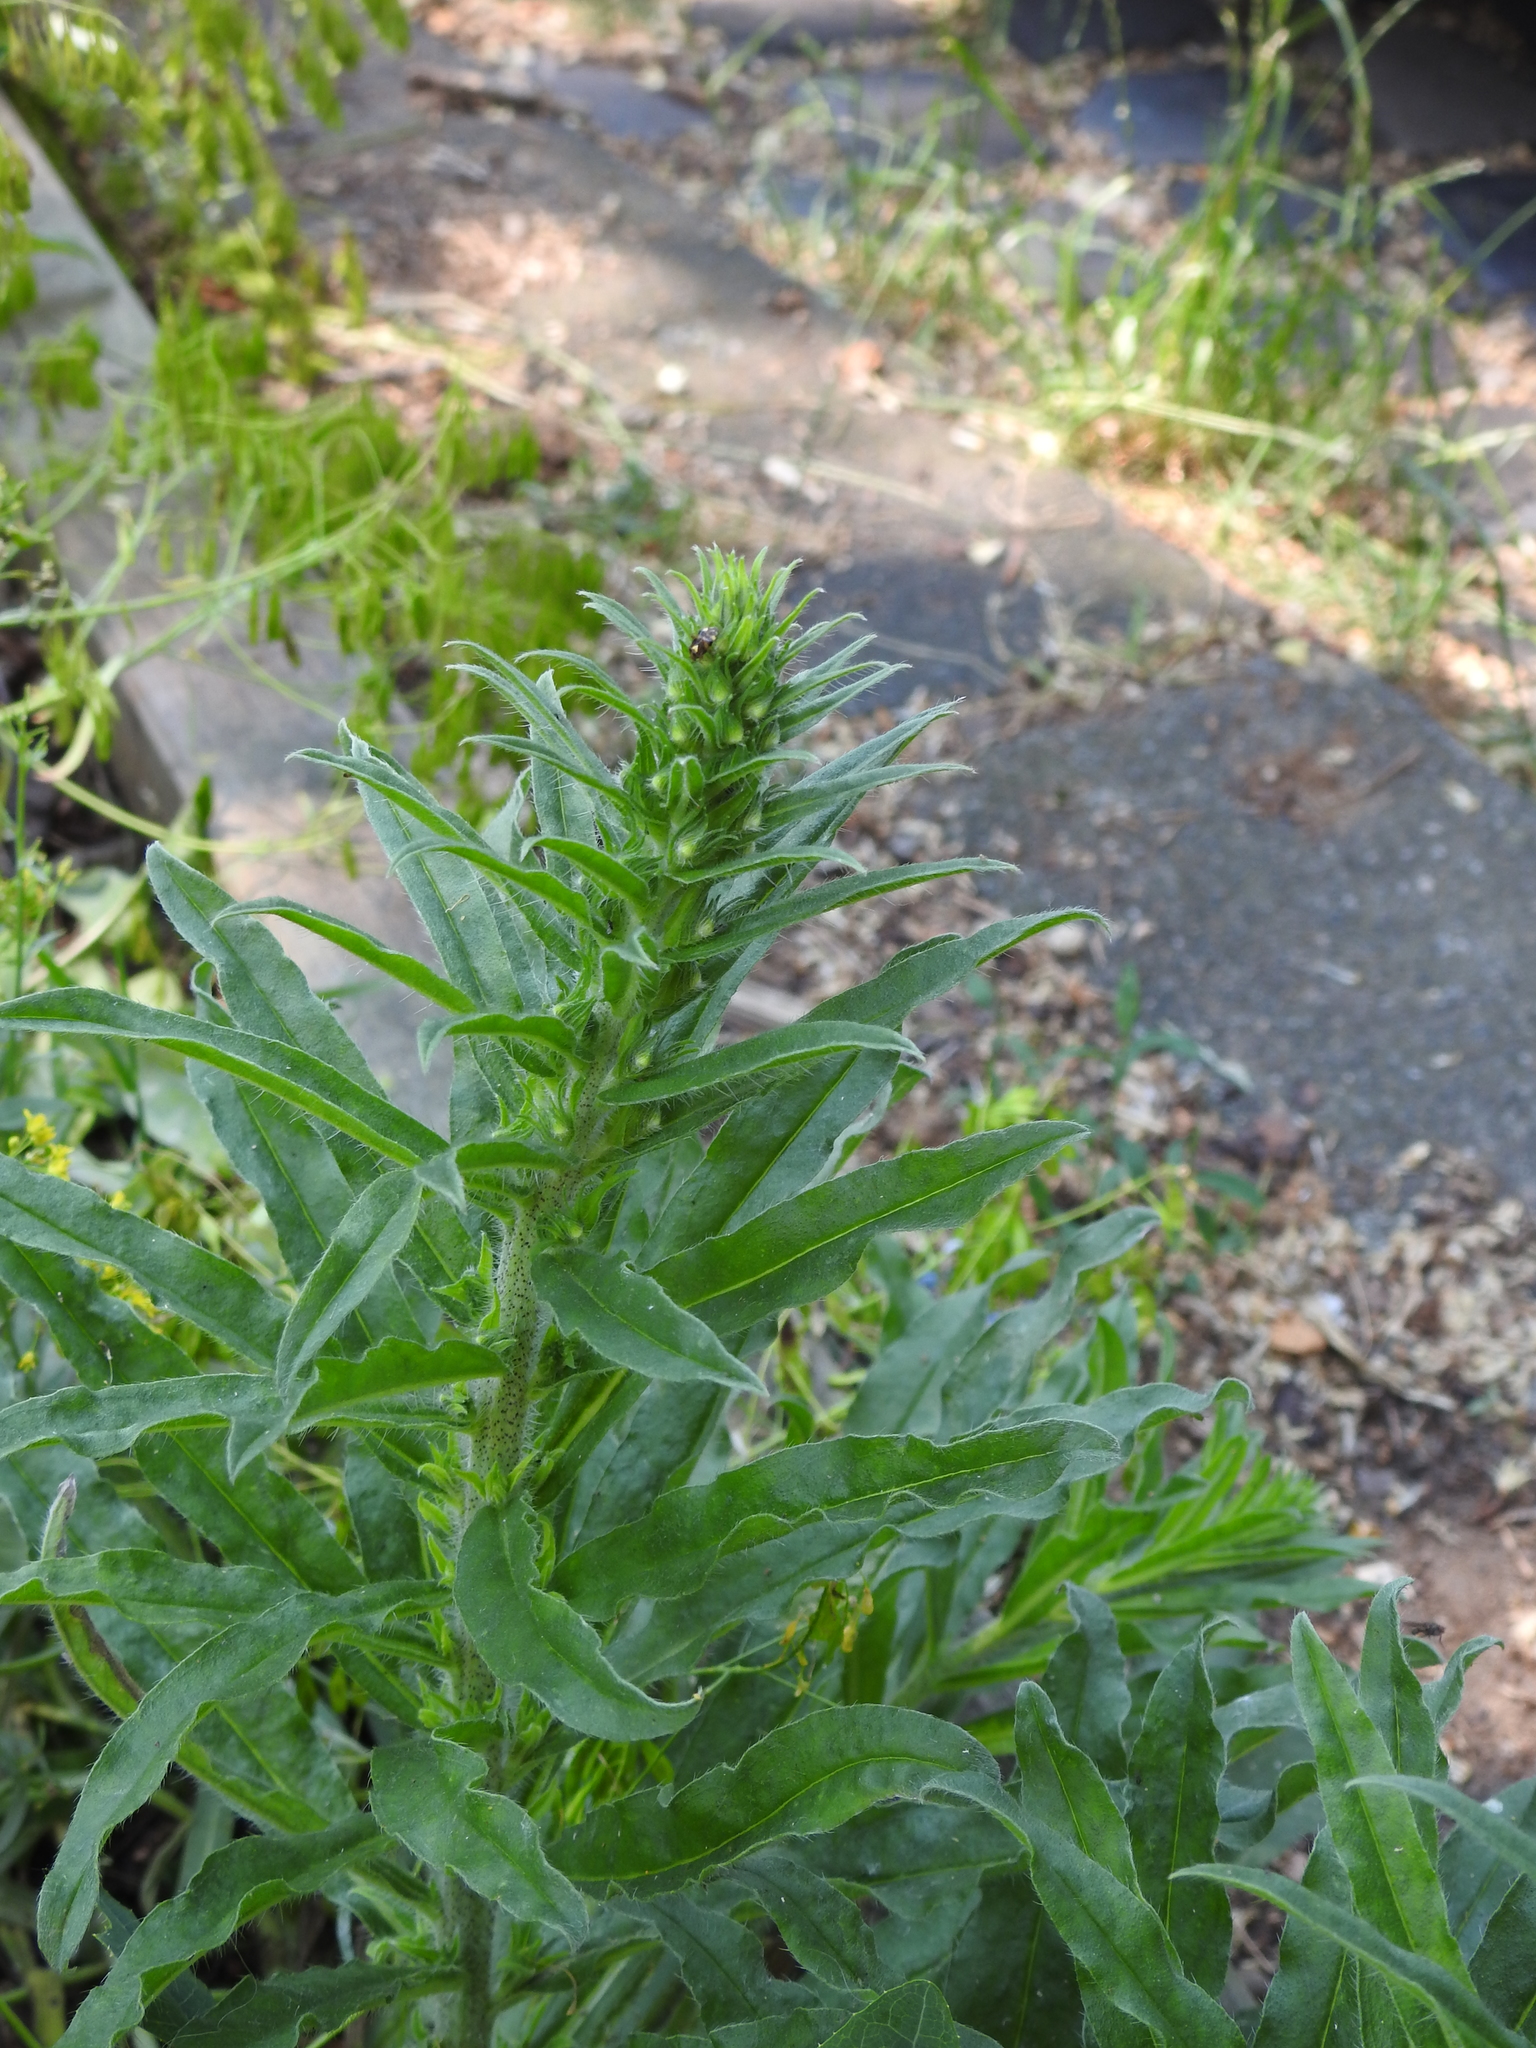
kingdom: Plantae
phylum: Tracheophyta
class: Magnoliopsida
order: Boraginales
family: Boraginaceae
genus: Echium
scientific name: Echium vulgare
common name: Common viper's bugloss
